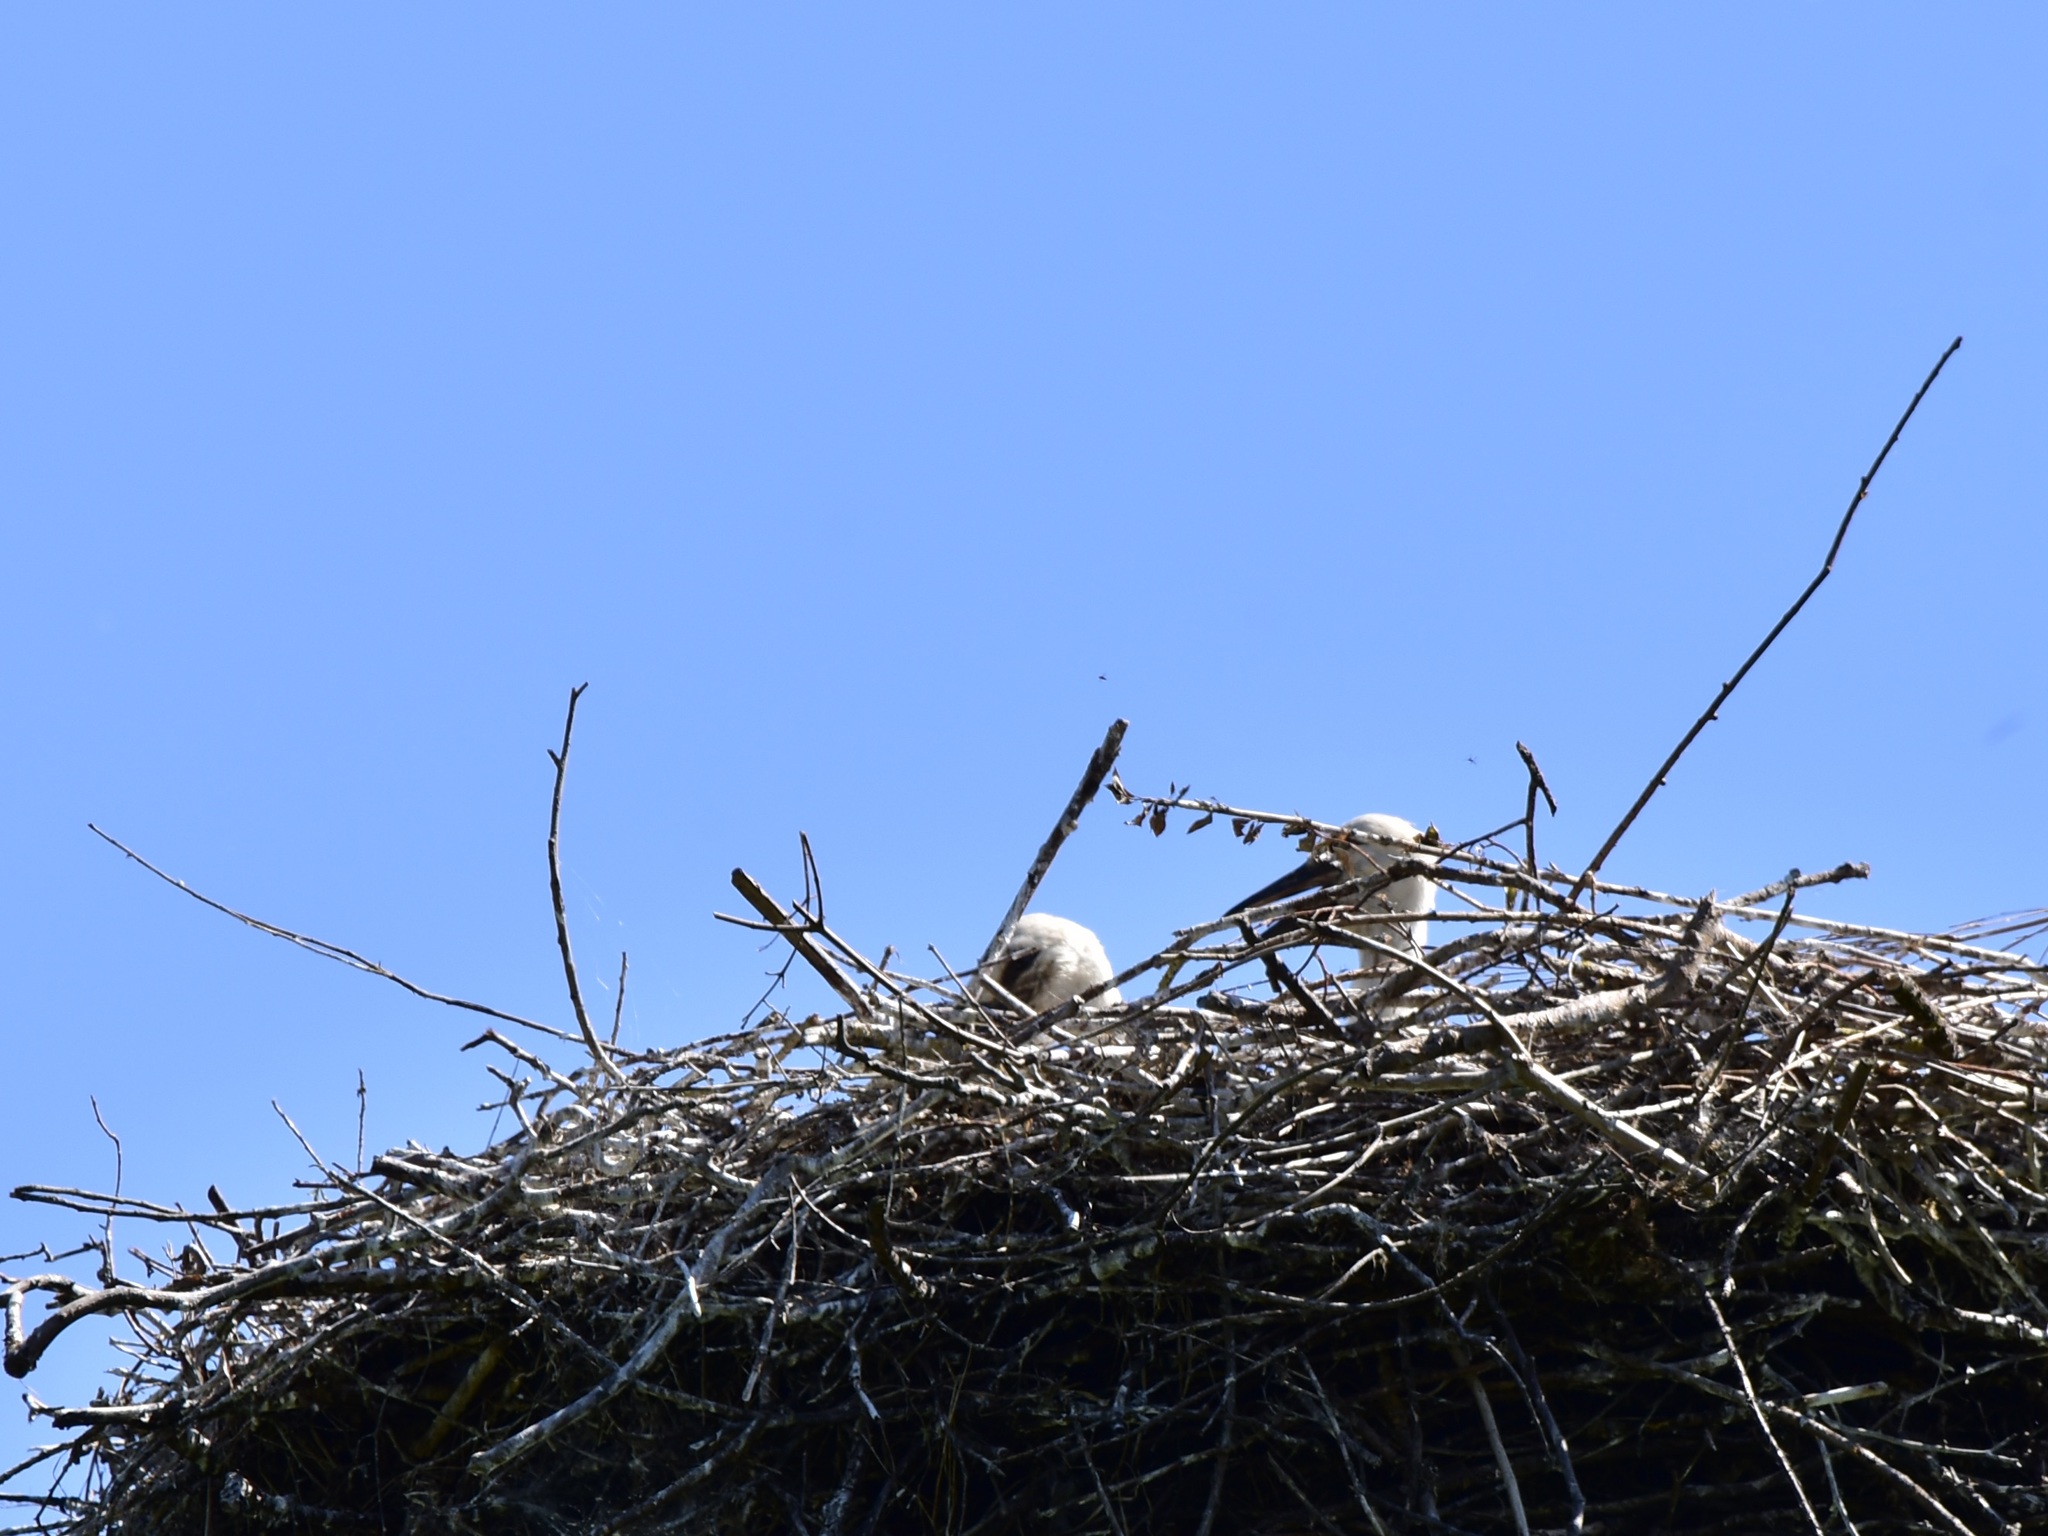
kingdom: Animalia
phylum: Chordata
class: Aves
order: Ciconiiformes
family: Ciconiidae
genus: Ciconia
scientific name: Ciconia ciconia
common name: White stork
